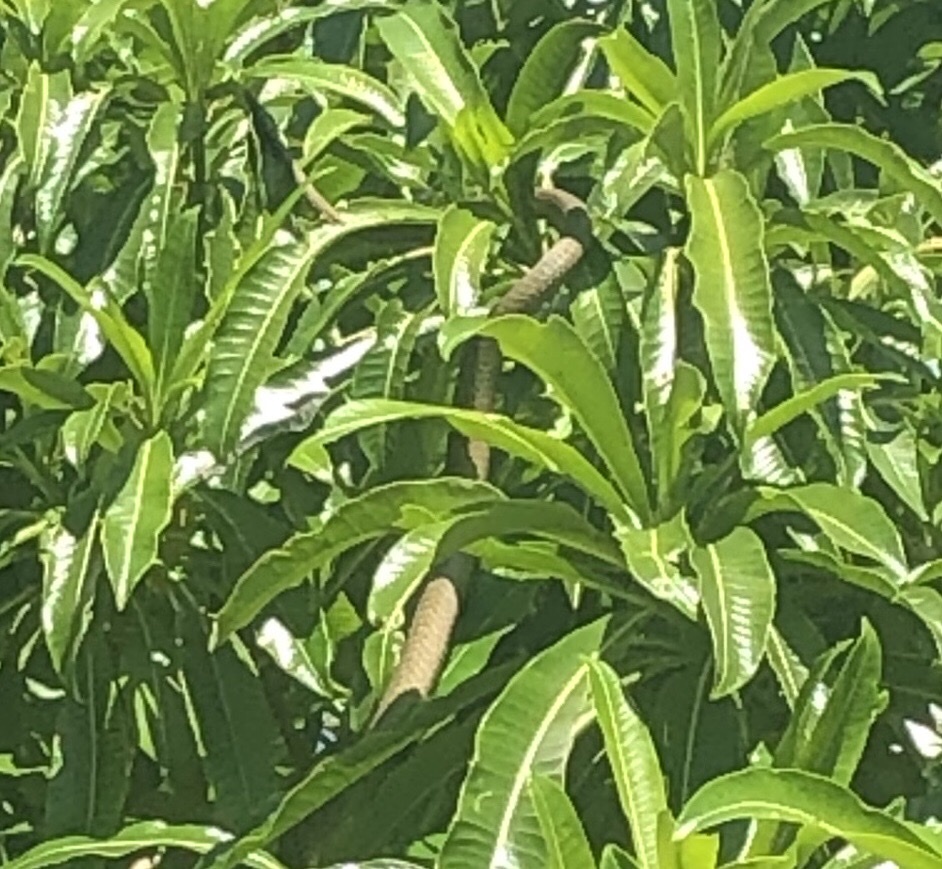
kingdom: Animalia
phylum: Chordata
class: Squamata
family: Colubridae
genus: Dispholidus
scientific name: Dispholidus typus
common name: Boomslang
